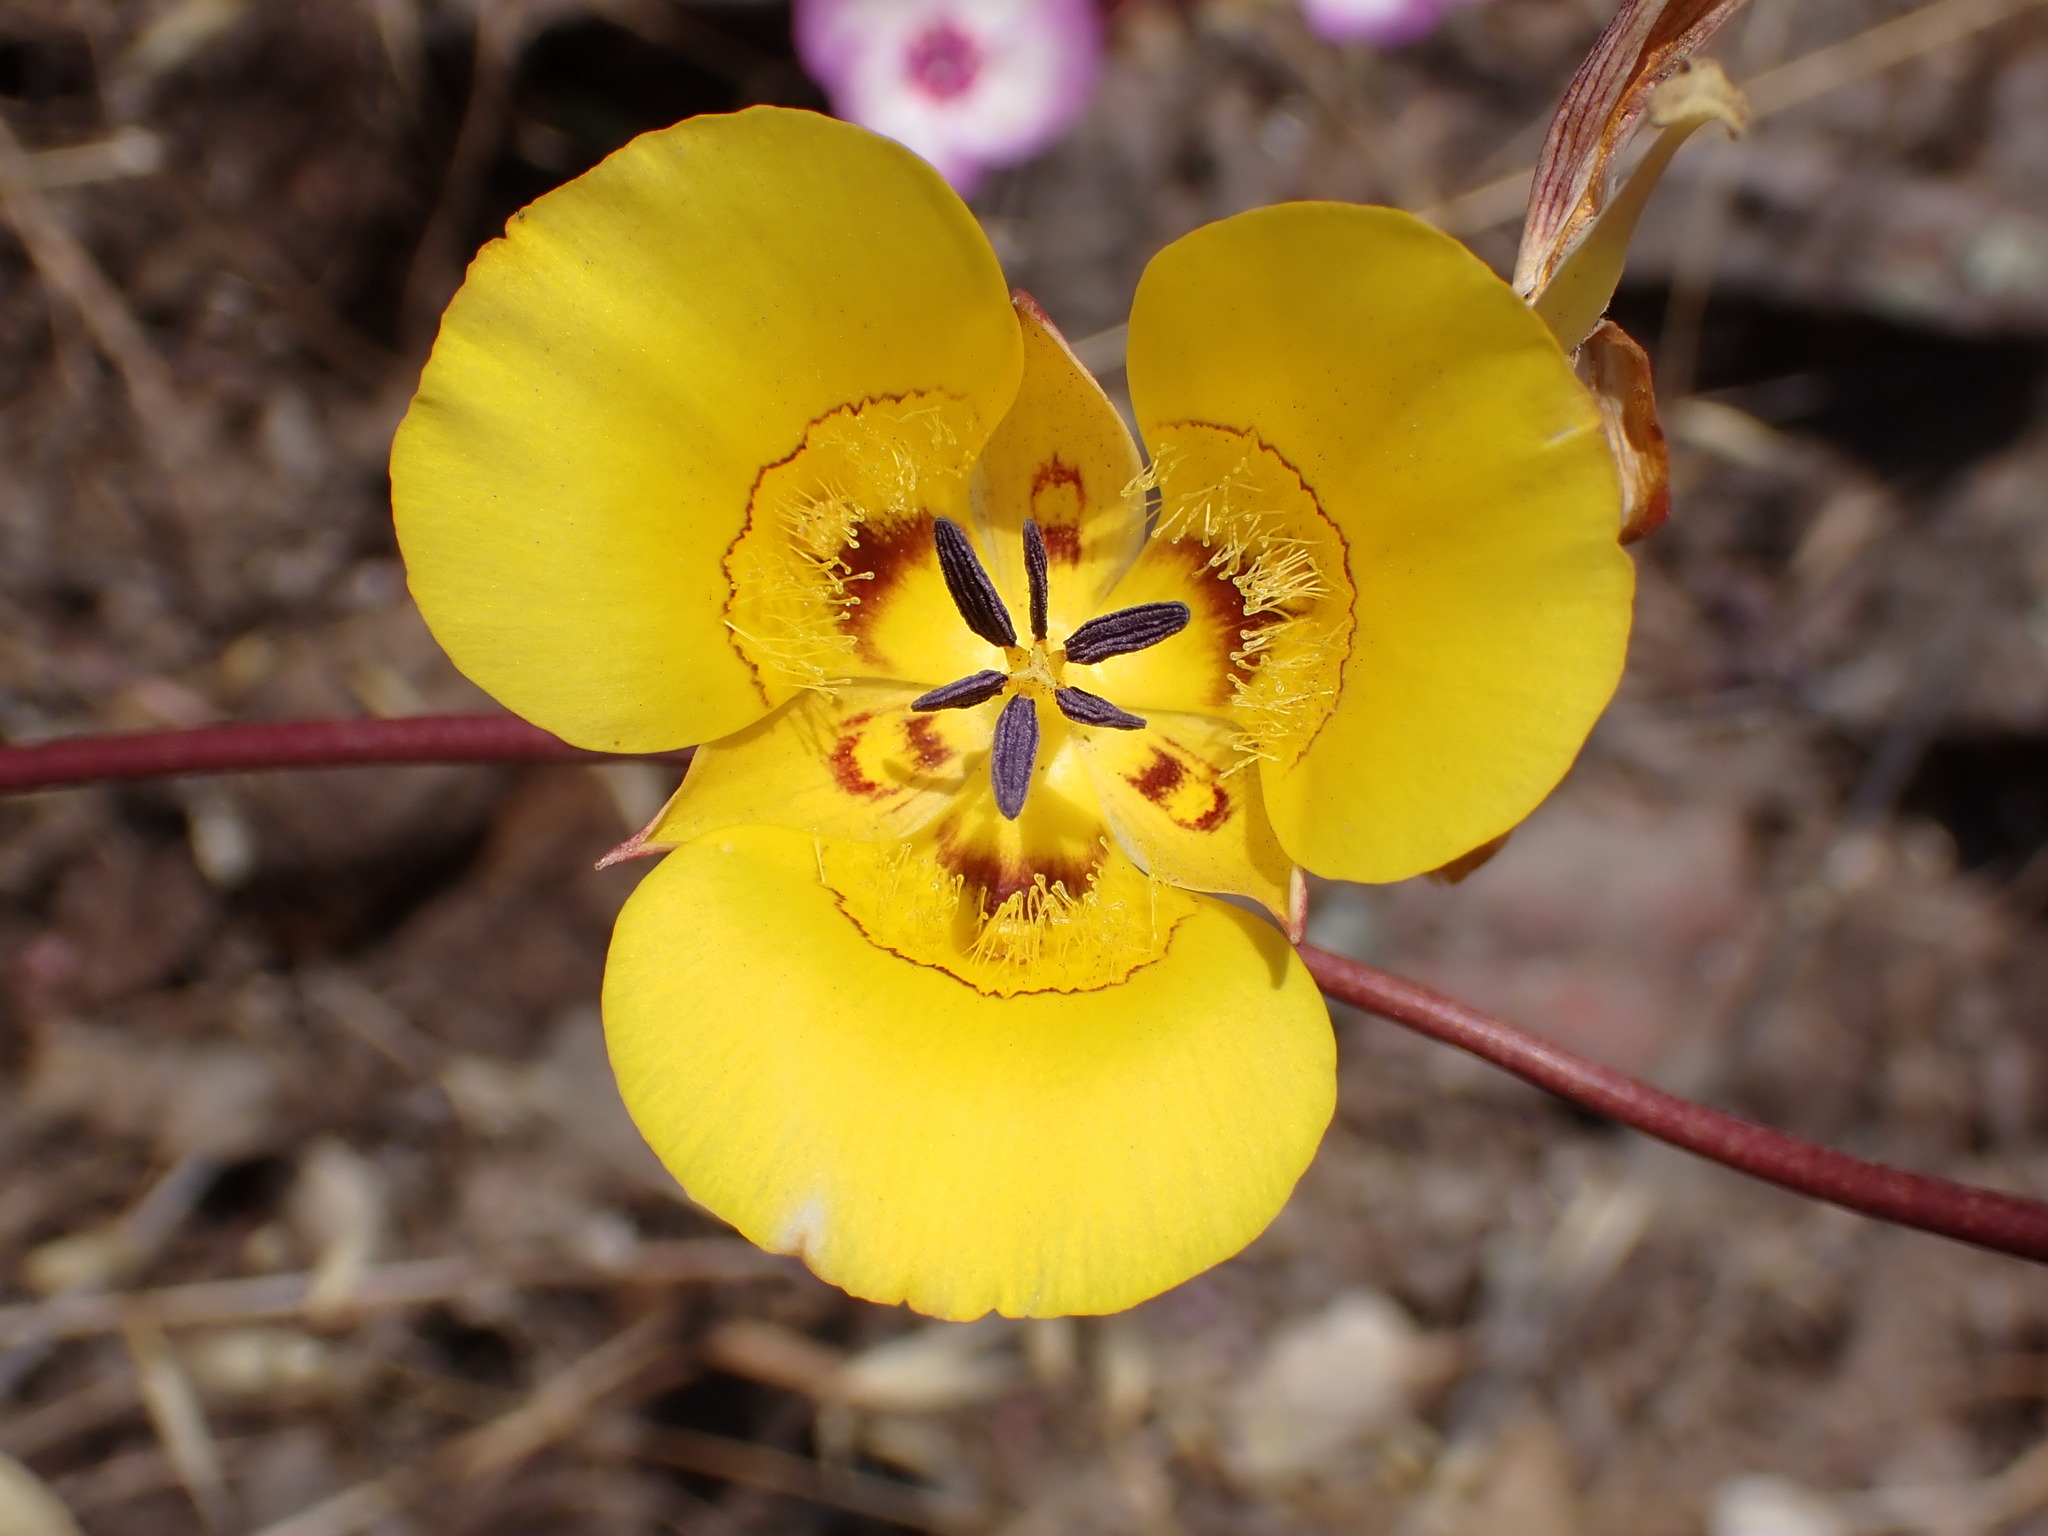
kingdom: Plantae
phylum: Tracheophyta
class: Liliopsida
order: Liliales
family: Liliaceae
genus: Calochortus
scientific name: Calochortus clavatus
